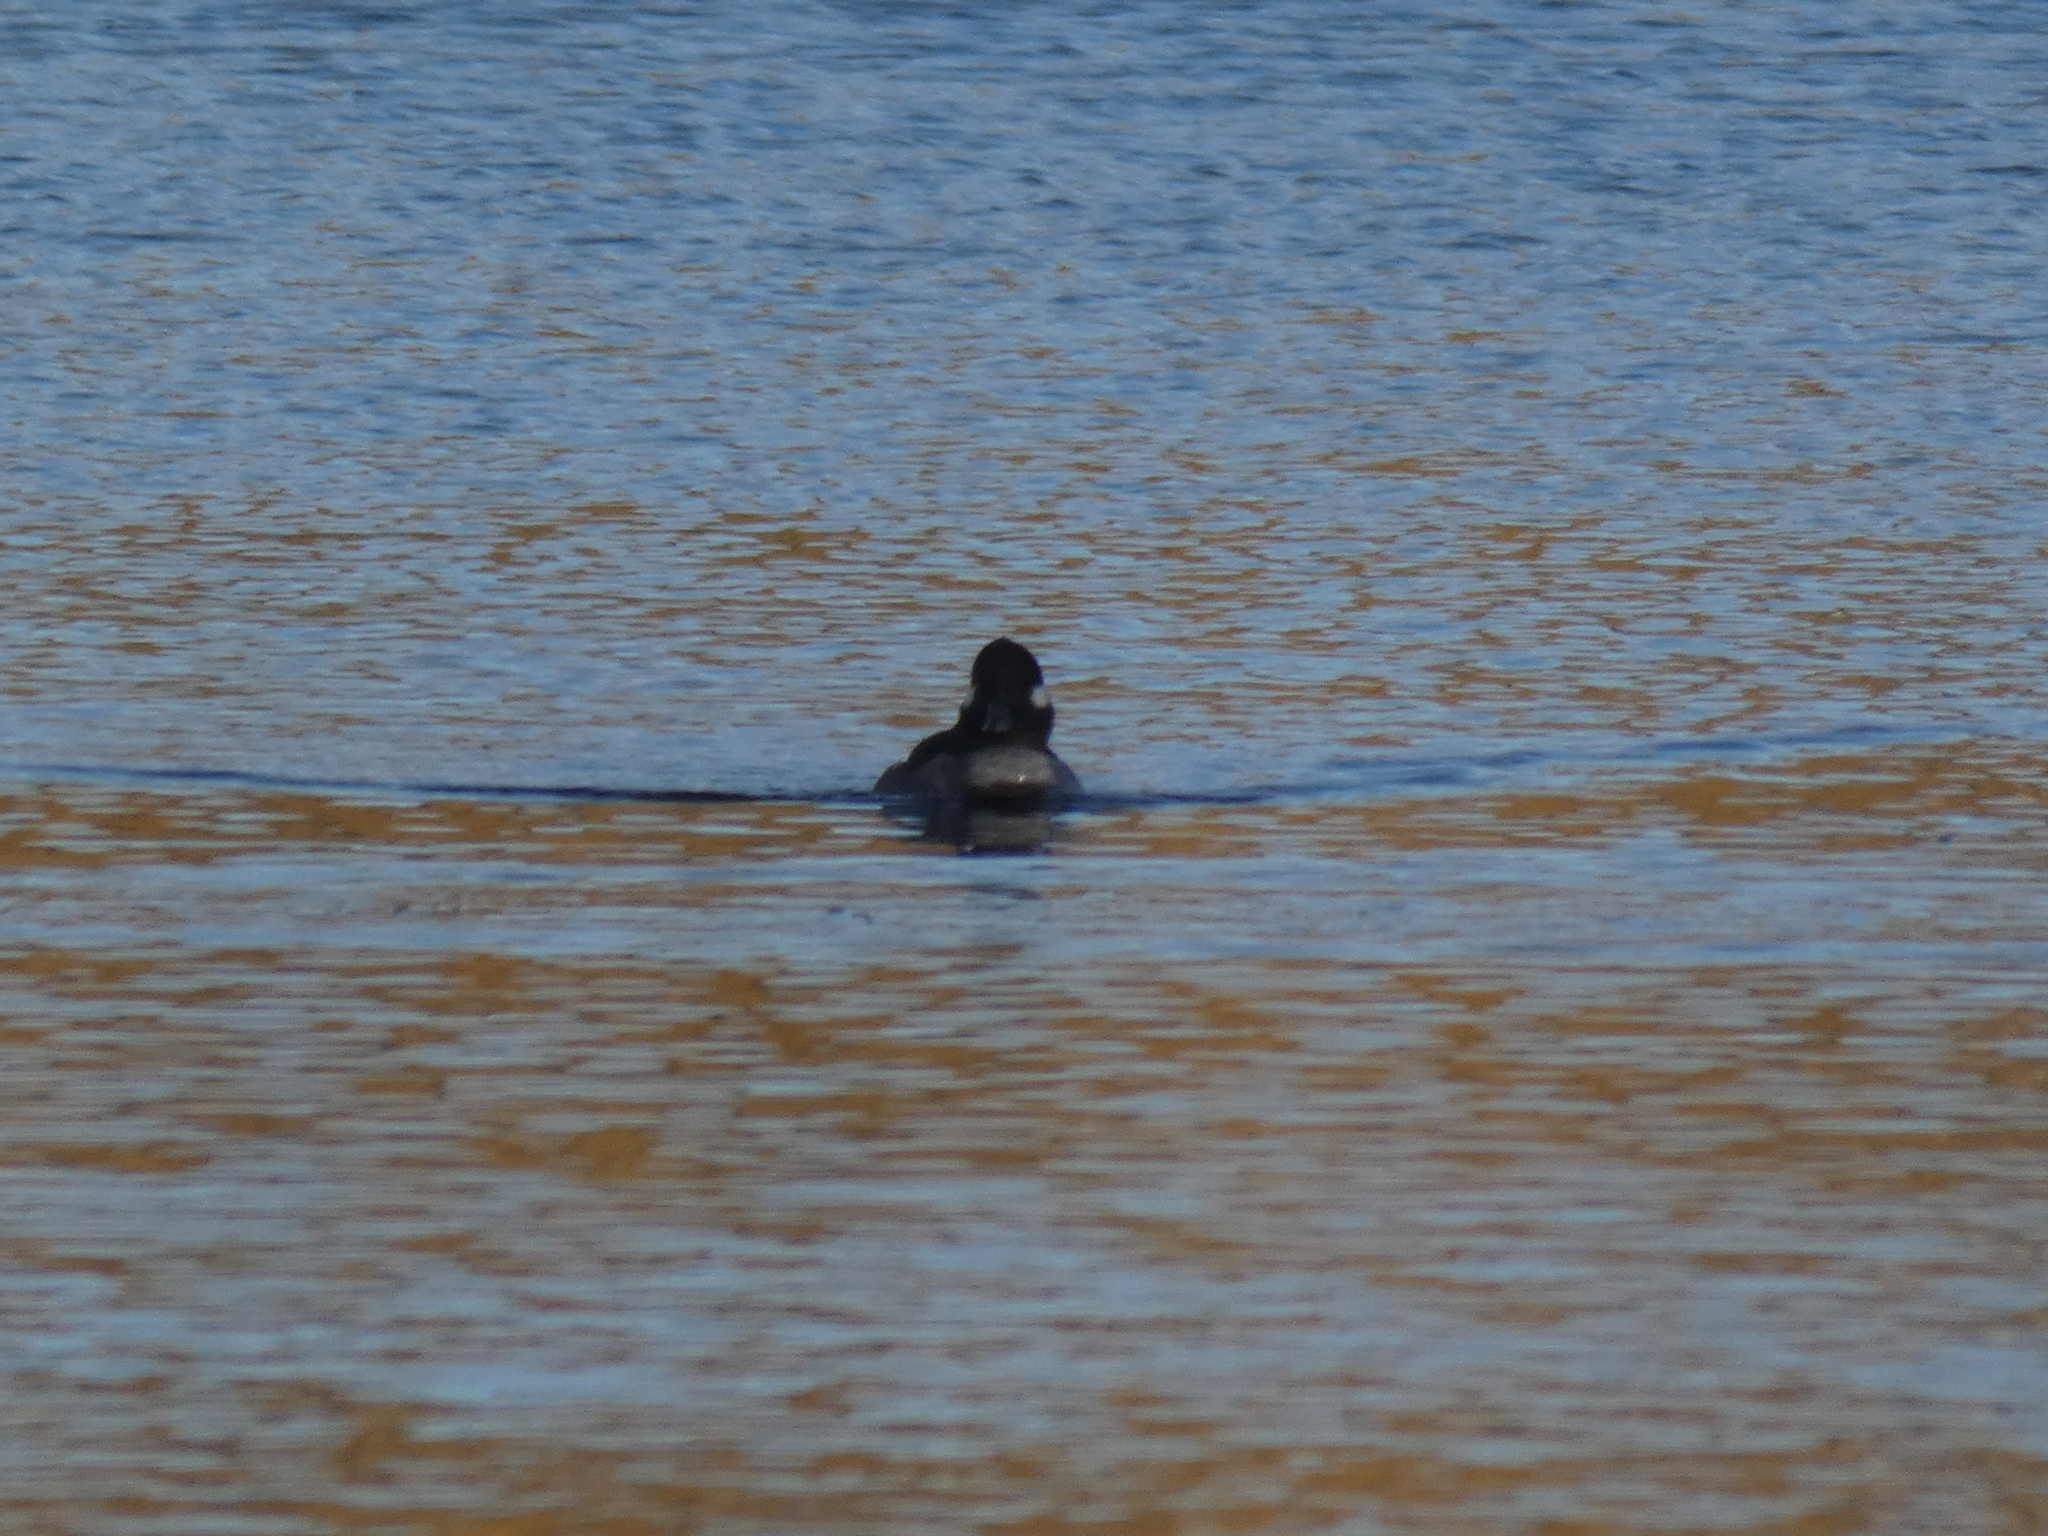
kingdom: Animalia
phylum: Chordata
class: Aves
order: Anseriformes
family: Anatidae
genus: Bucephala
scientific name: Bucephala albeola
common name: Bufflehead
